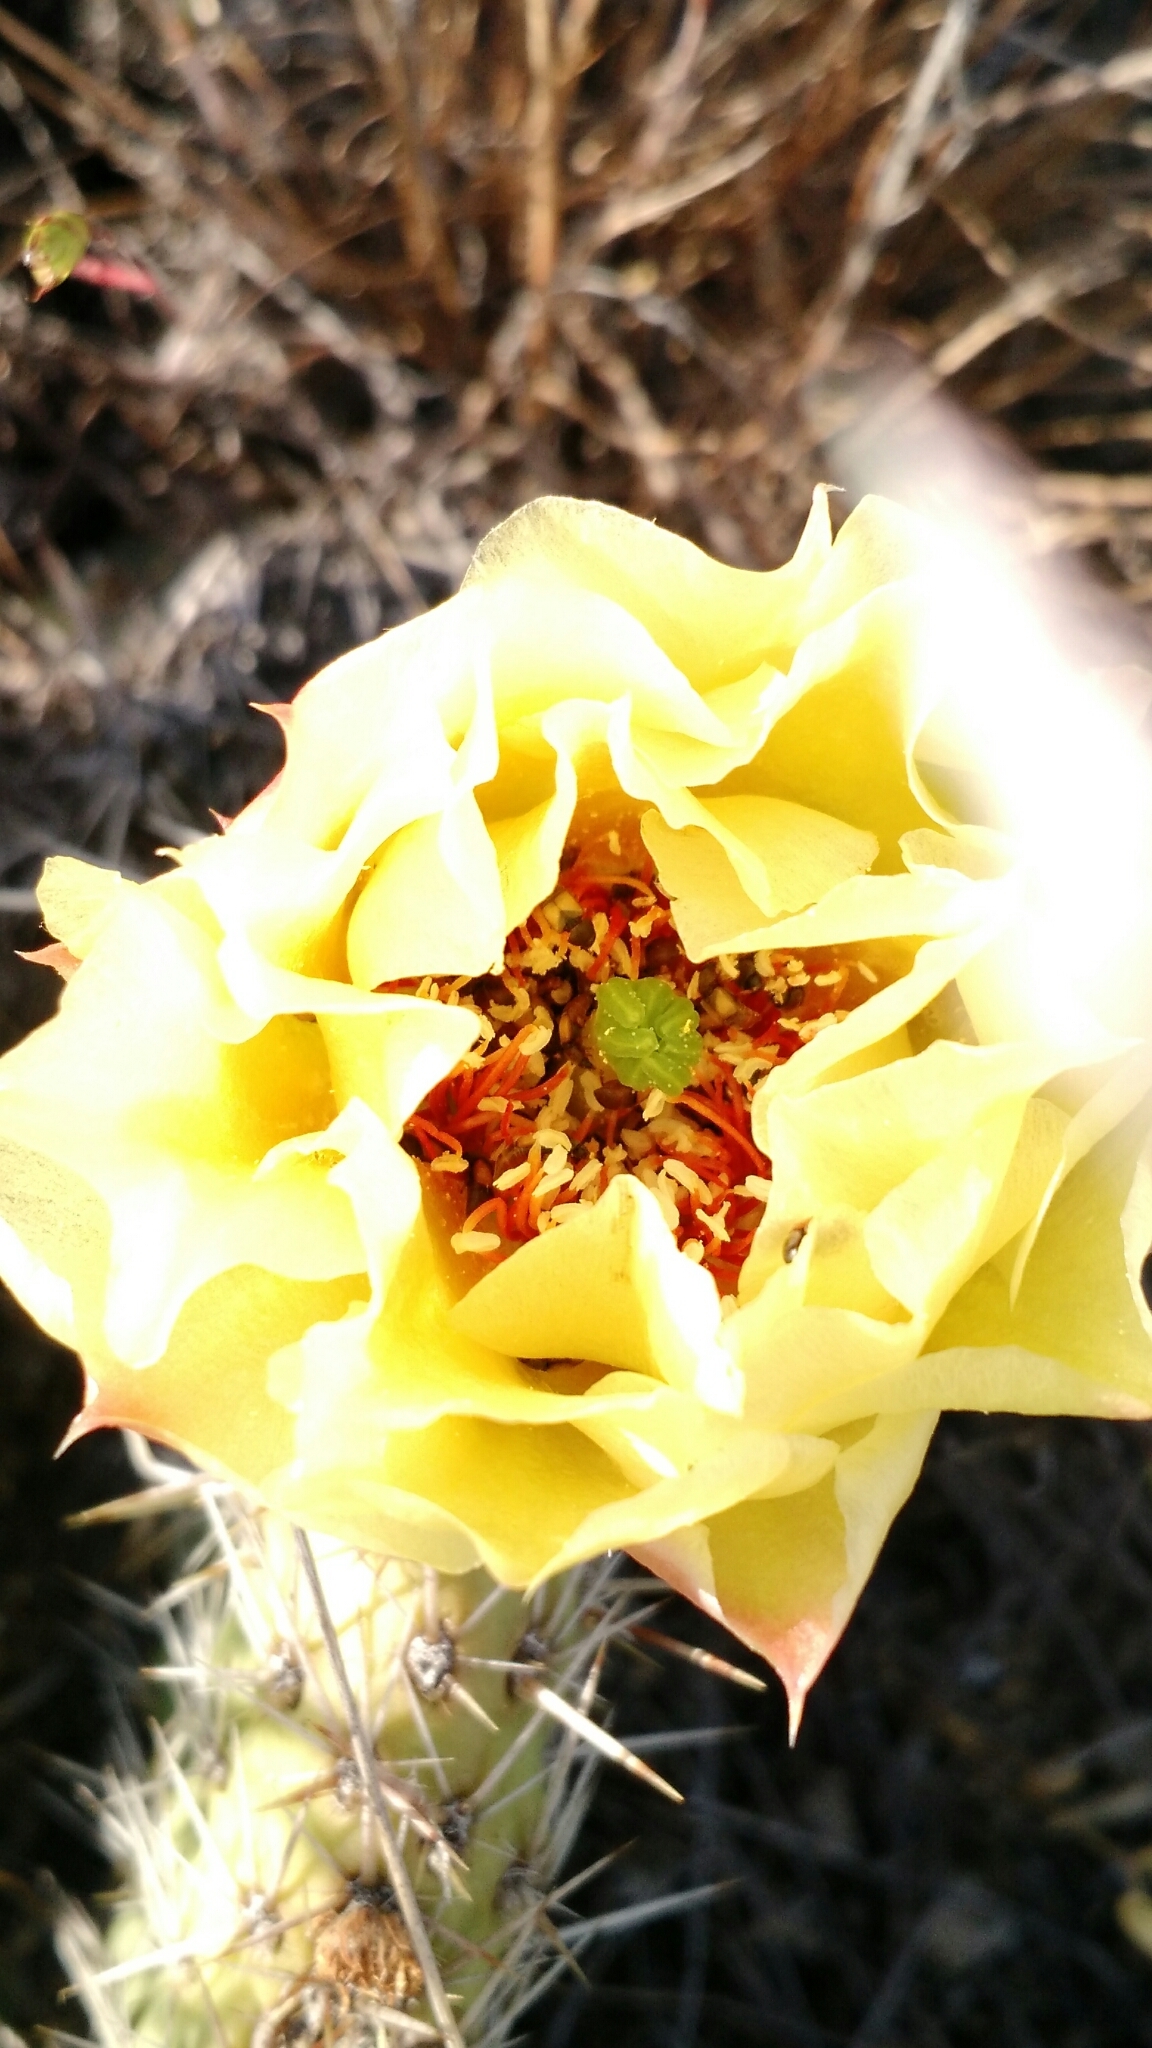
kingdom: Plantae
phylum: Tracheophyta
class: Magnoliopsida
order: Caryophyllales
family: Cactaceae
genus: Opuntia
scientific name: Opuntia polyacantha
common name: Plains prickly-pear
